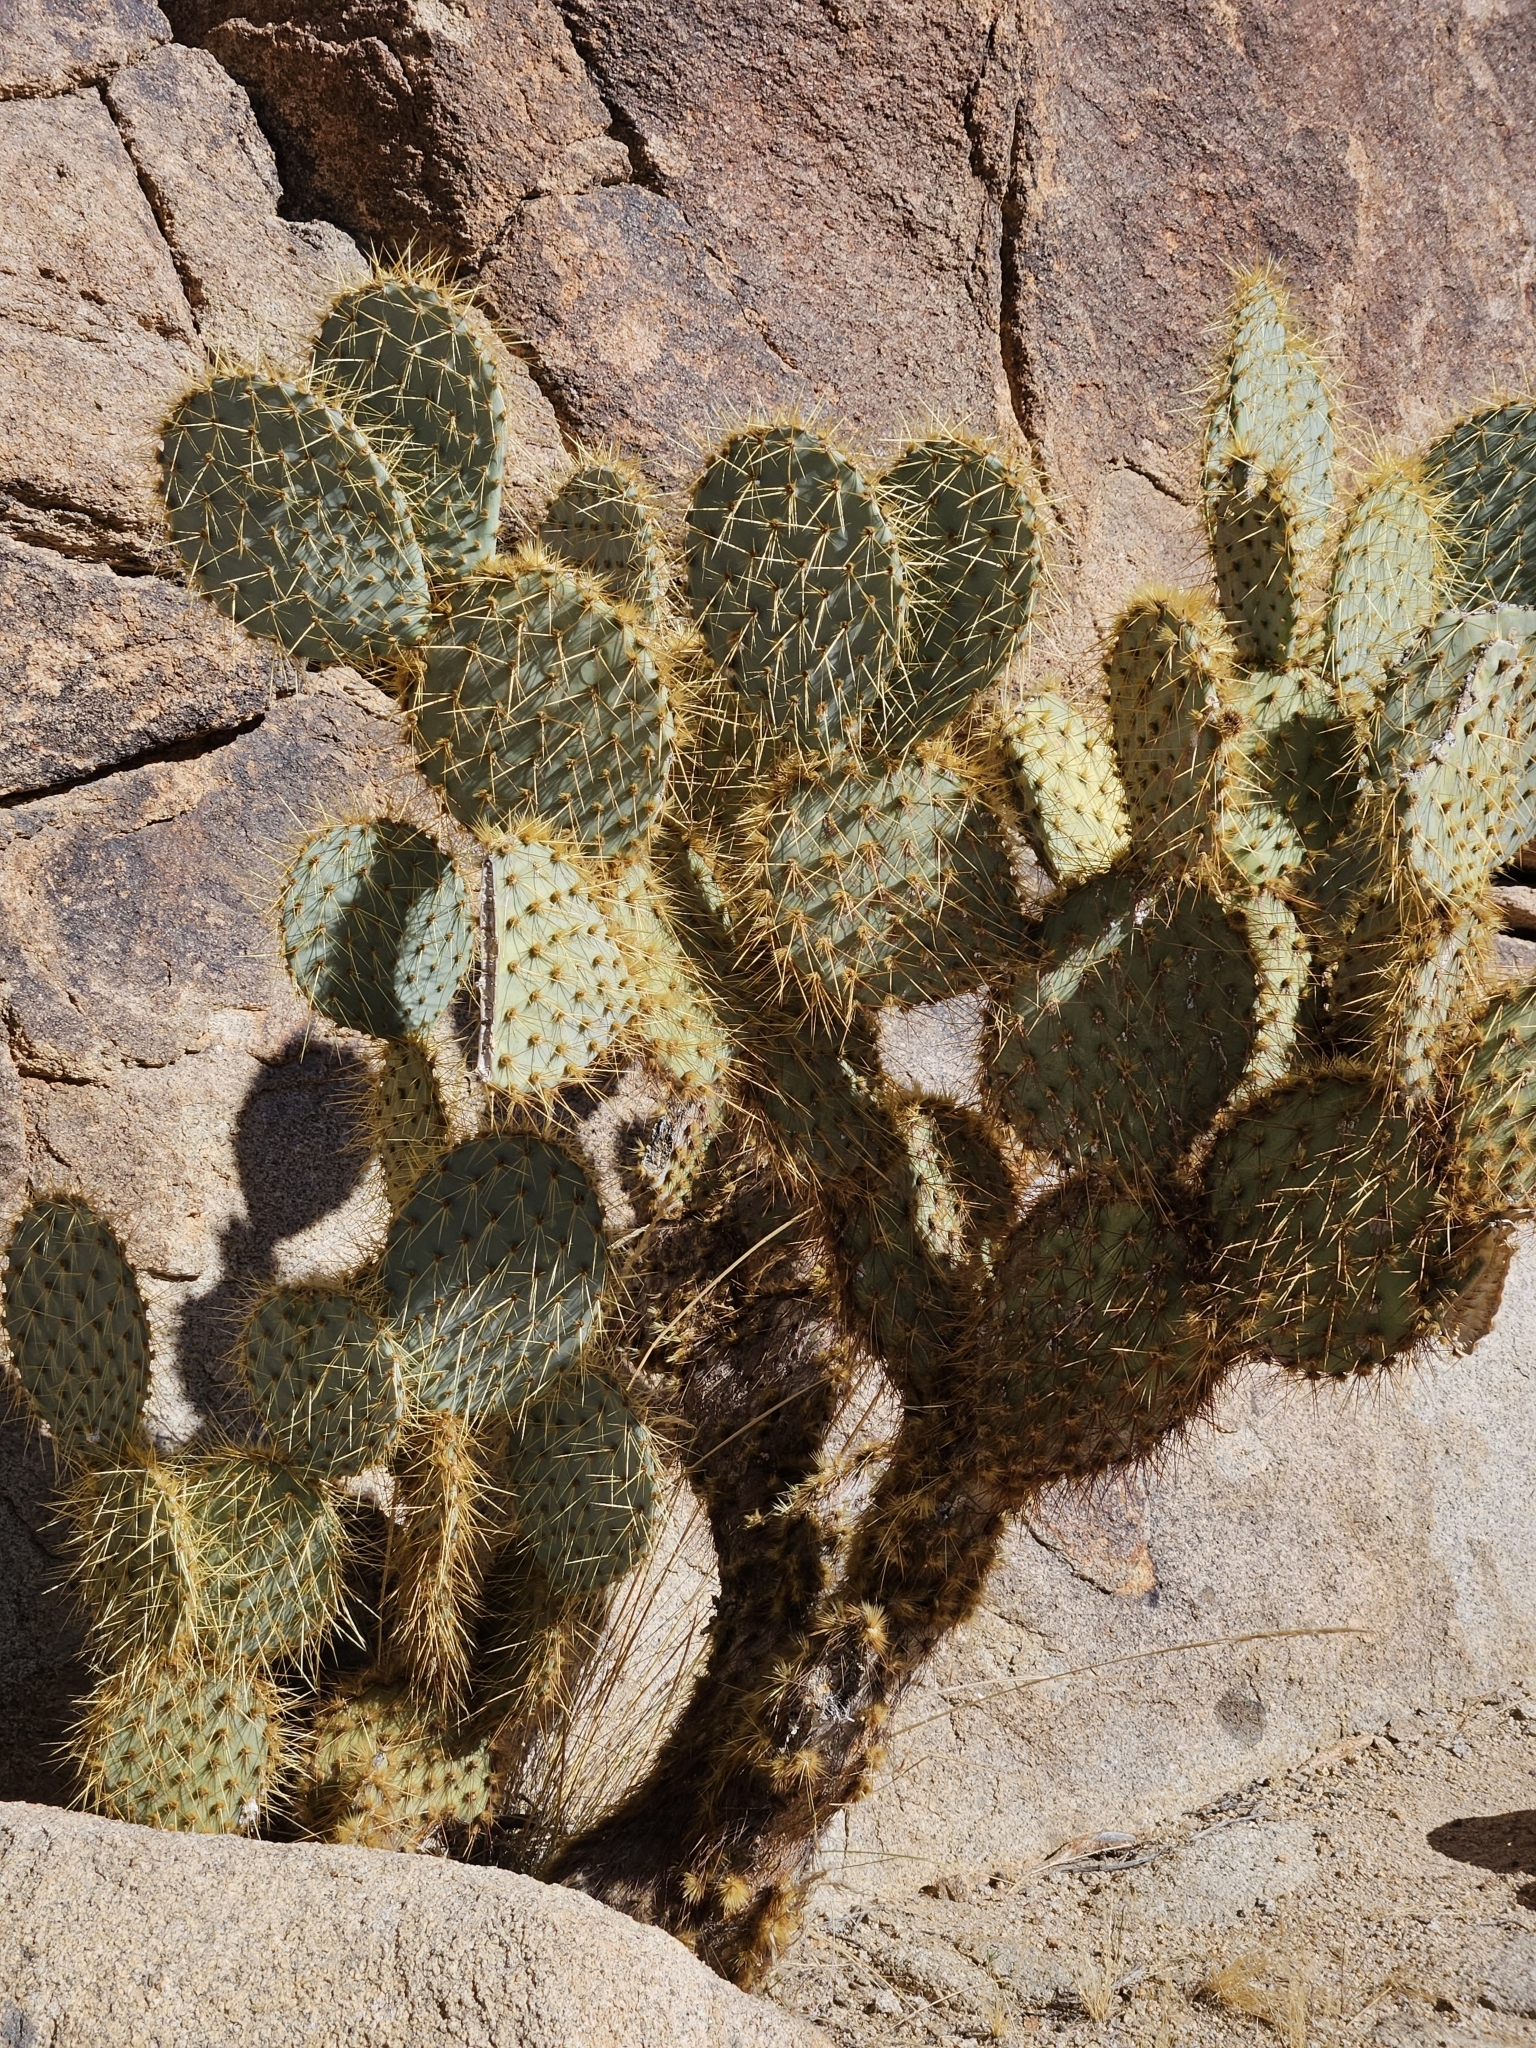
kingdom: Plantae
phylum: Tracheophyta
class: Magnoliopsida
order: Caryophyllales
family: Cactaceae
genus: Opuntia
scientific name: Opuntia chlorotica
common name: Dollar-joint prickly-pear
